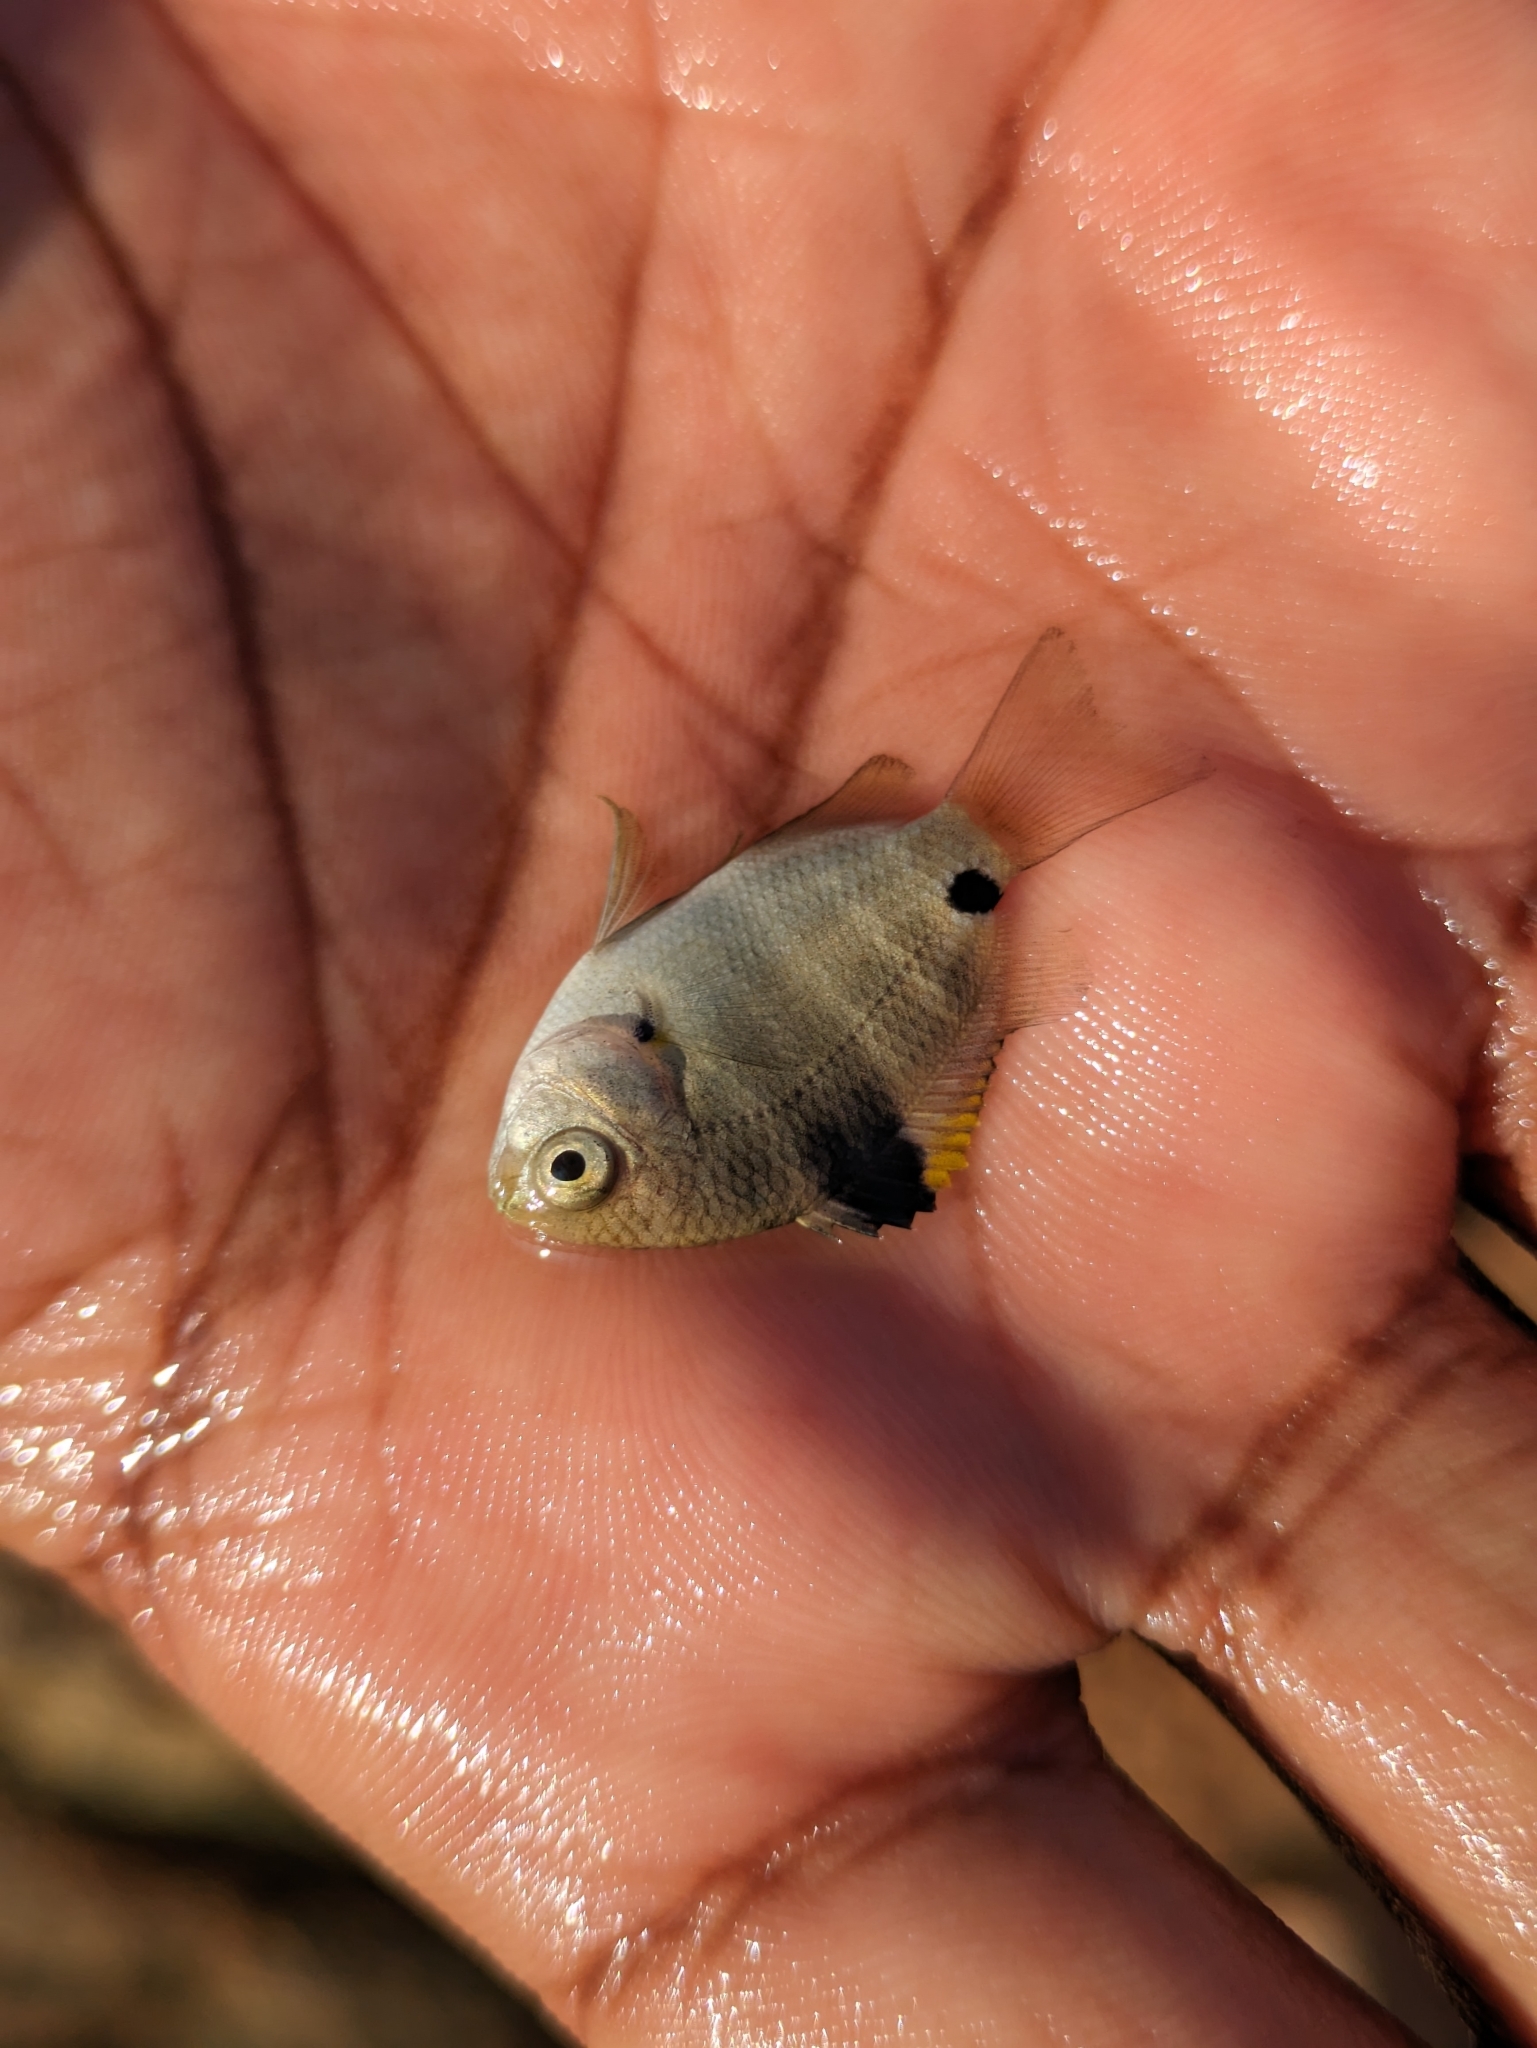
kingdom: Animalia
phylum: Chordata
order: Perciformes
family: Pomacentridae
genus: Abudefduf
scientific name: Abudefduf sordidus
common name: Blackspot sergeant
